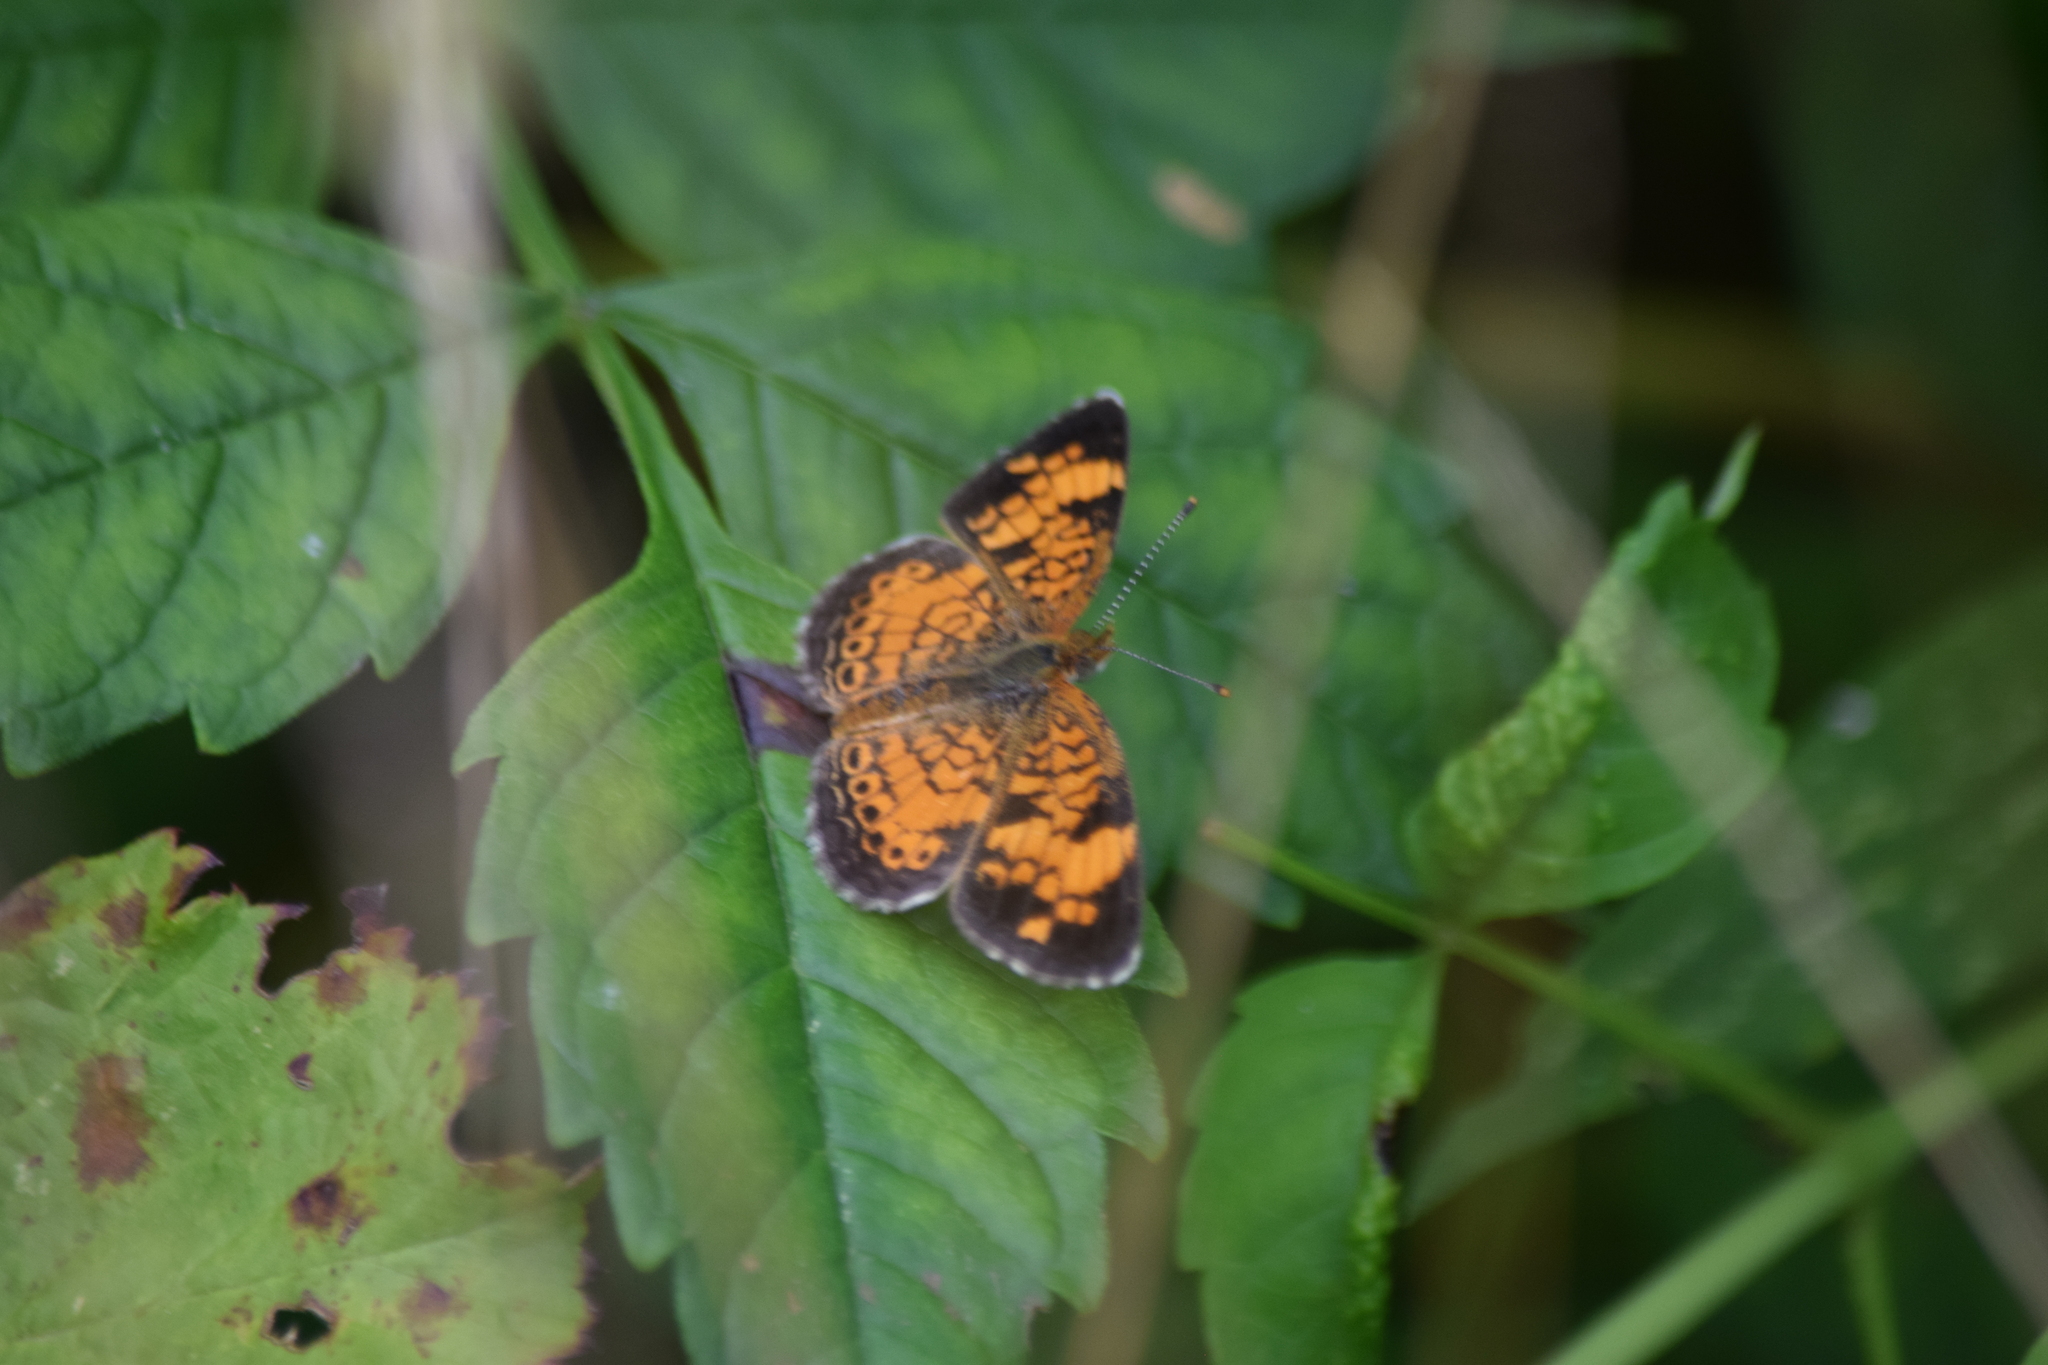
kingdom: Animalia
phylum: Arthropoda
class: Insecta
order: Lepidoptera
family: Nymphalidae
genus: Phyciodes
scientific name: Phyciodes tharos
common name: Pearl crescent
